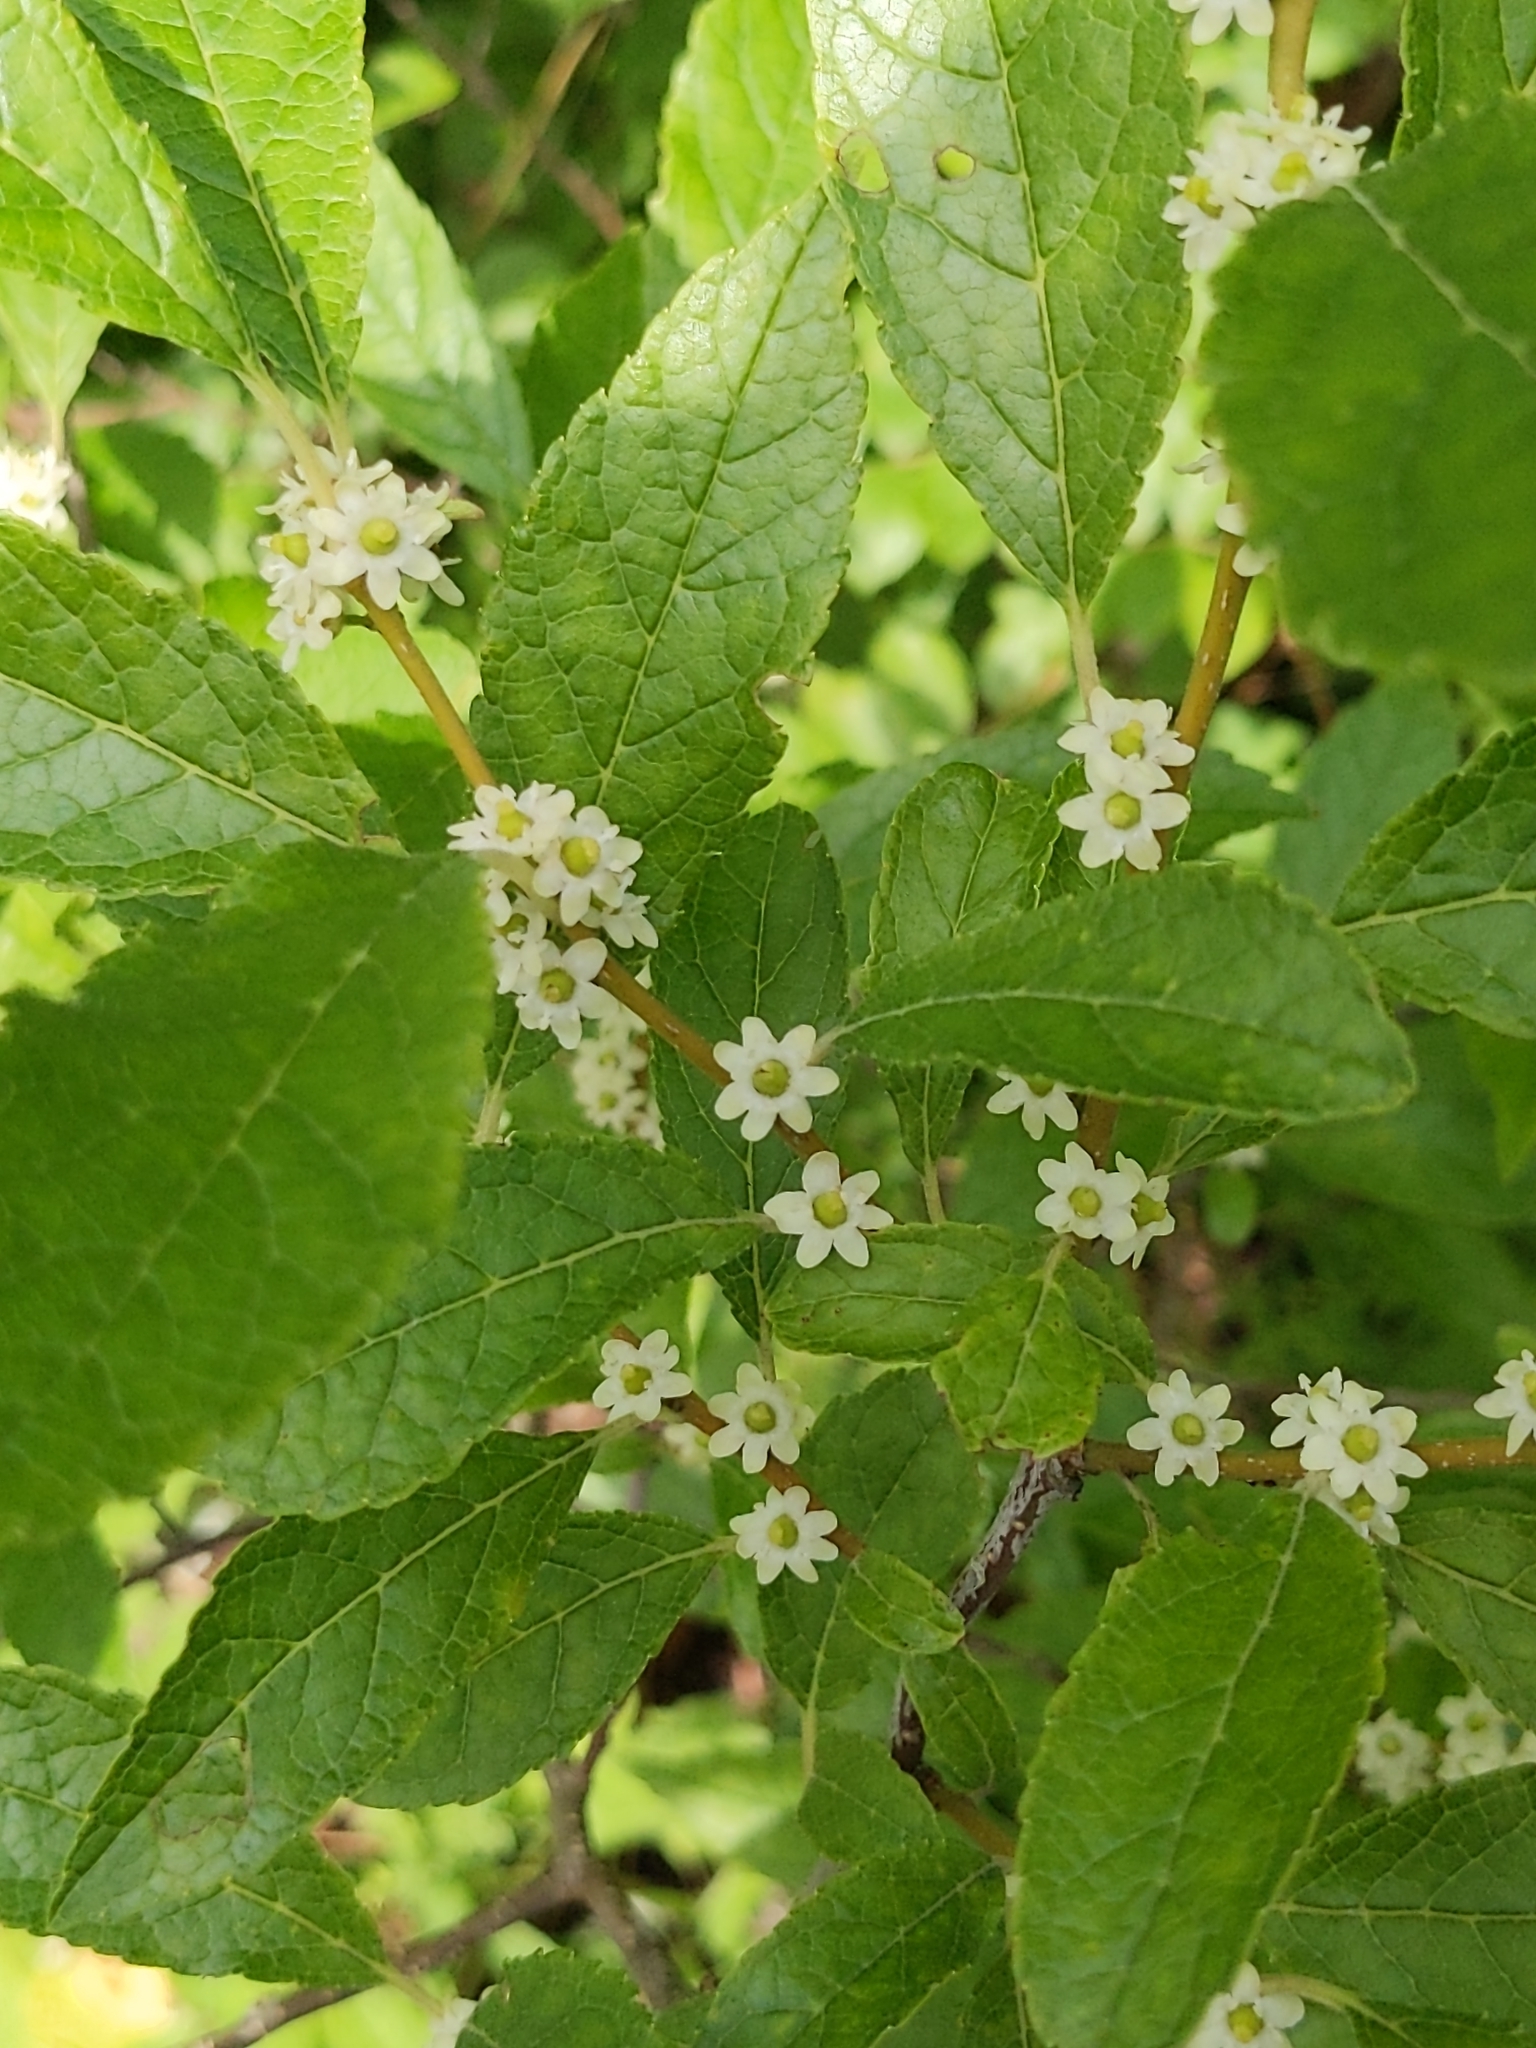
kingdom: Plantae
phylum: Tracheophyta
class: Magnoliopsida
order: Aquifoliales
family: Aquifoliaceae
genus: Ilex
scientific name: Ilex verticillata
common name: Virginia winterberry
